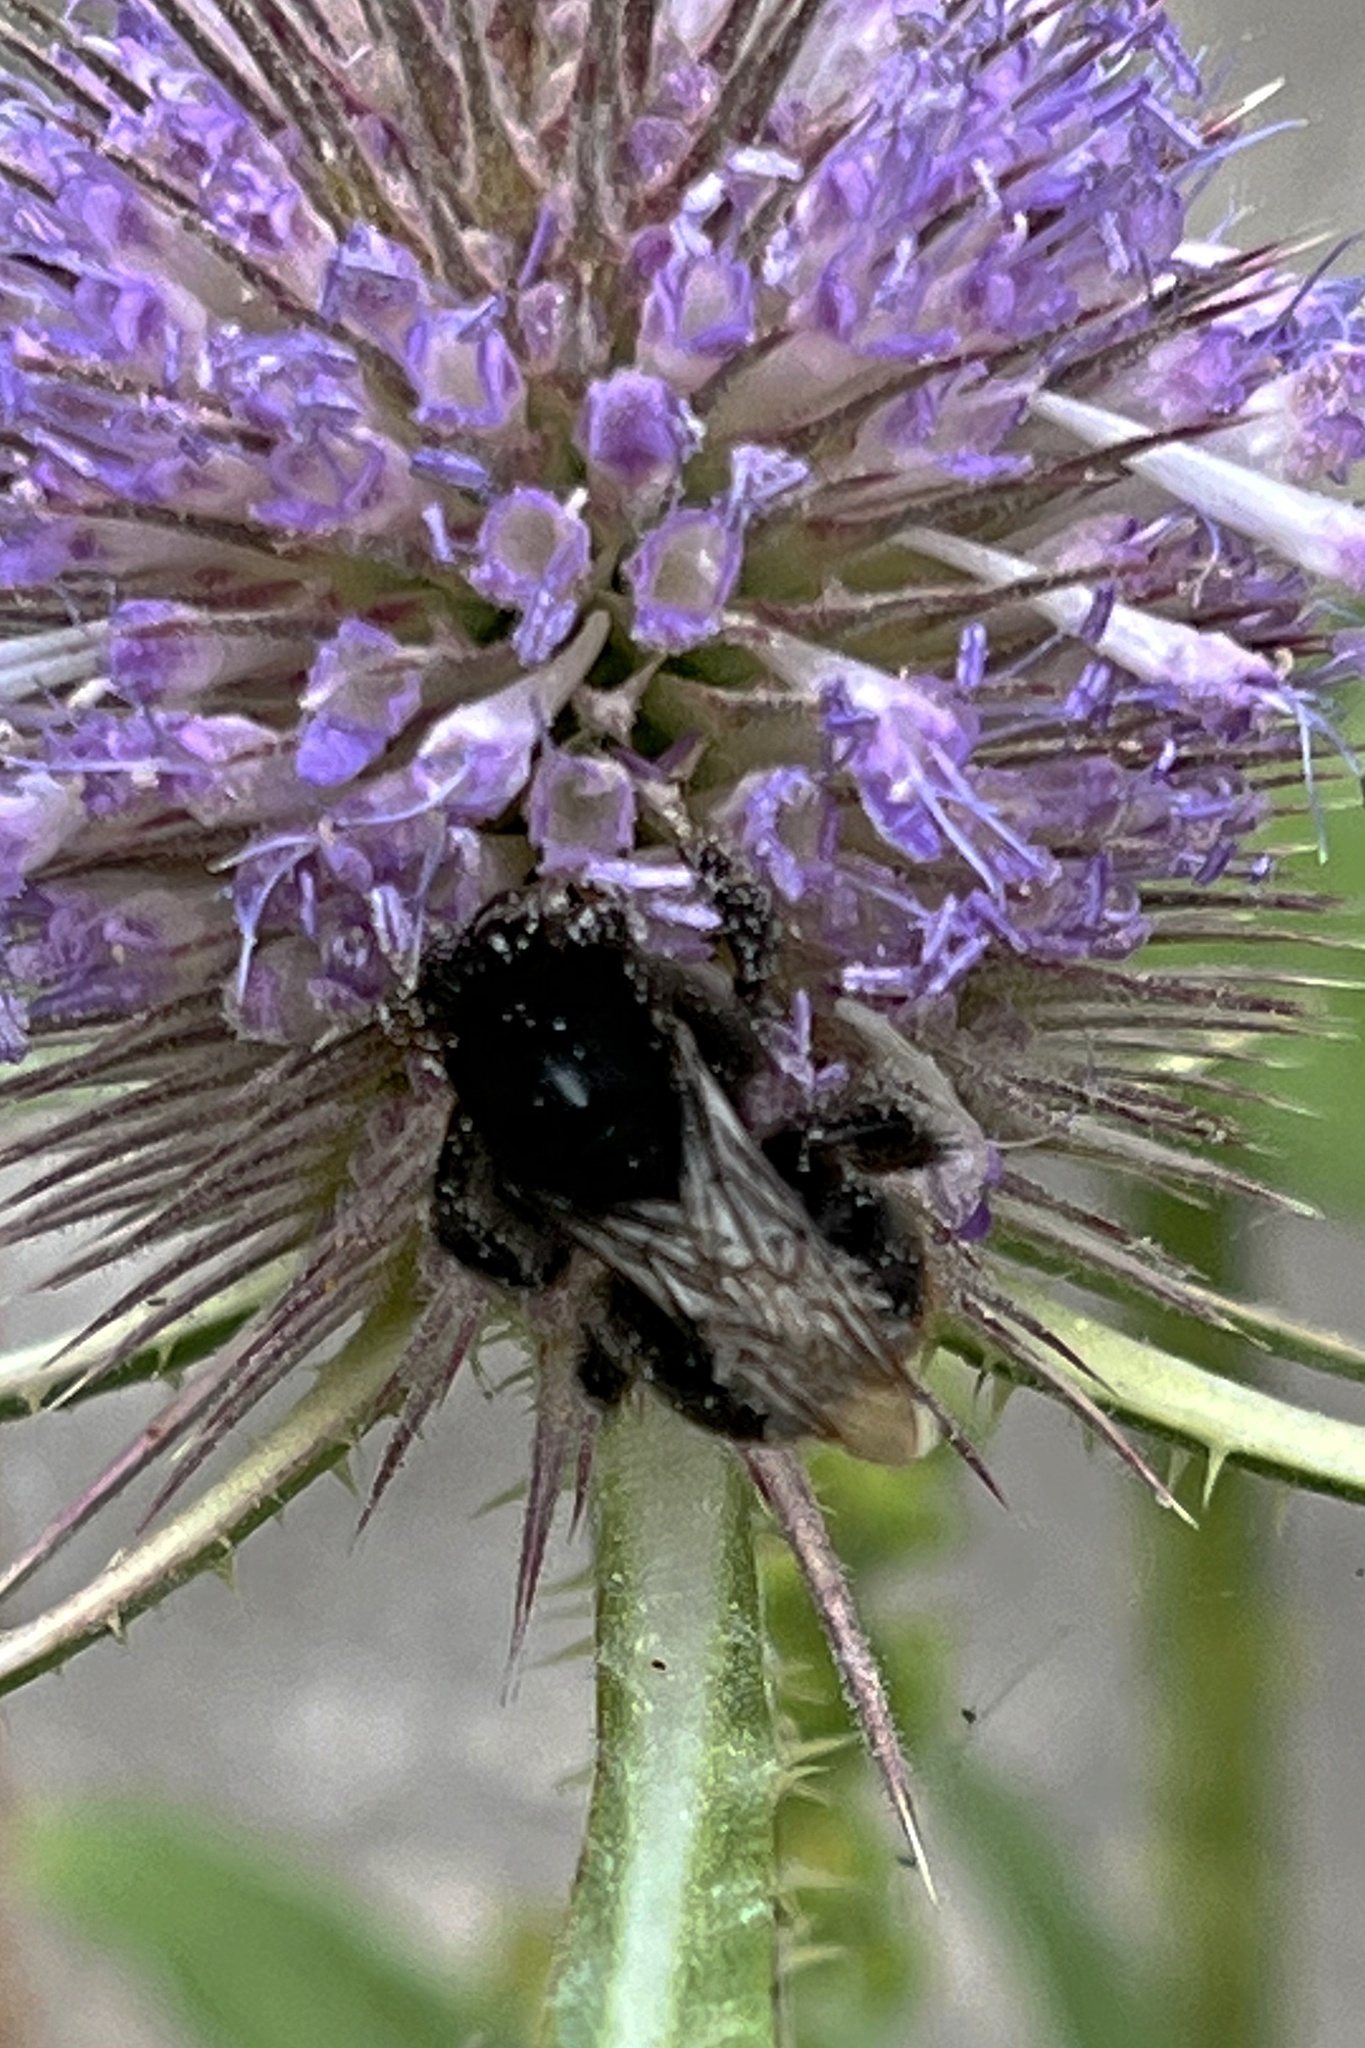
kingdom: Animalia
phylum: Arthropoda
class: Insecta
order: Hymenoptera
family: Apidae
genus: Bombus
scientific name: Bombus lapidarius
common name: Large red-tailed humble-bee
